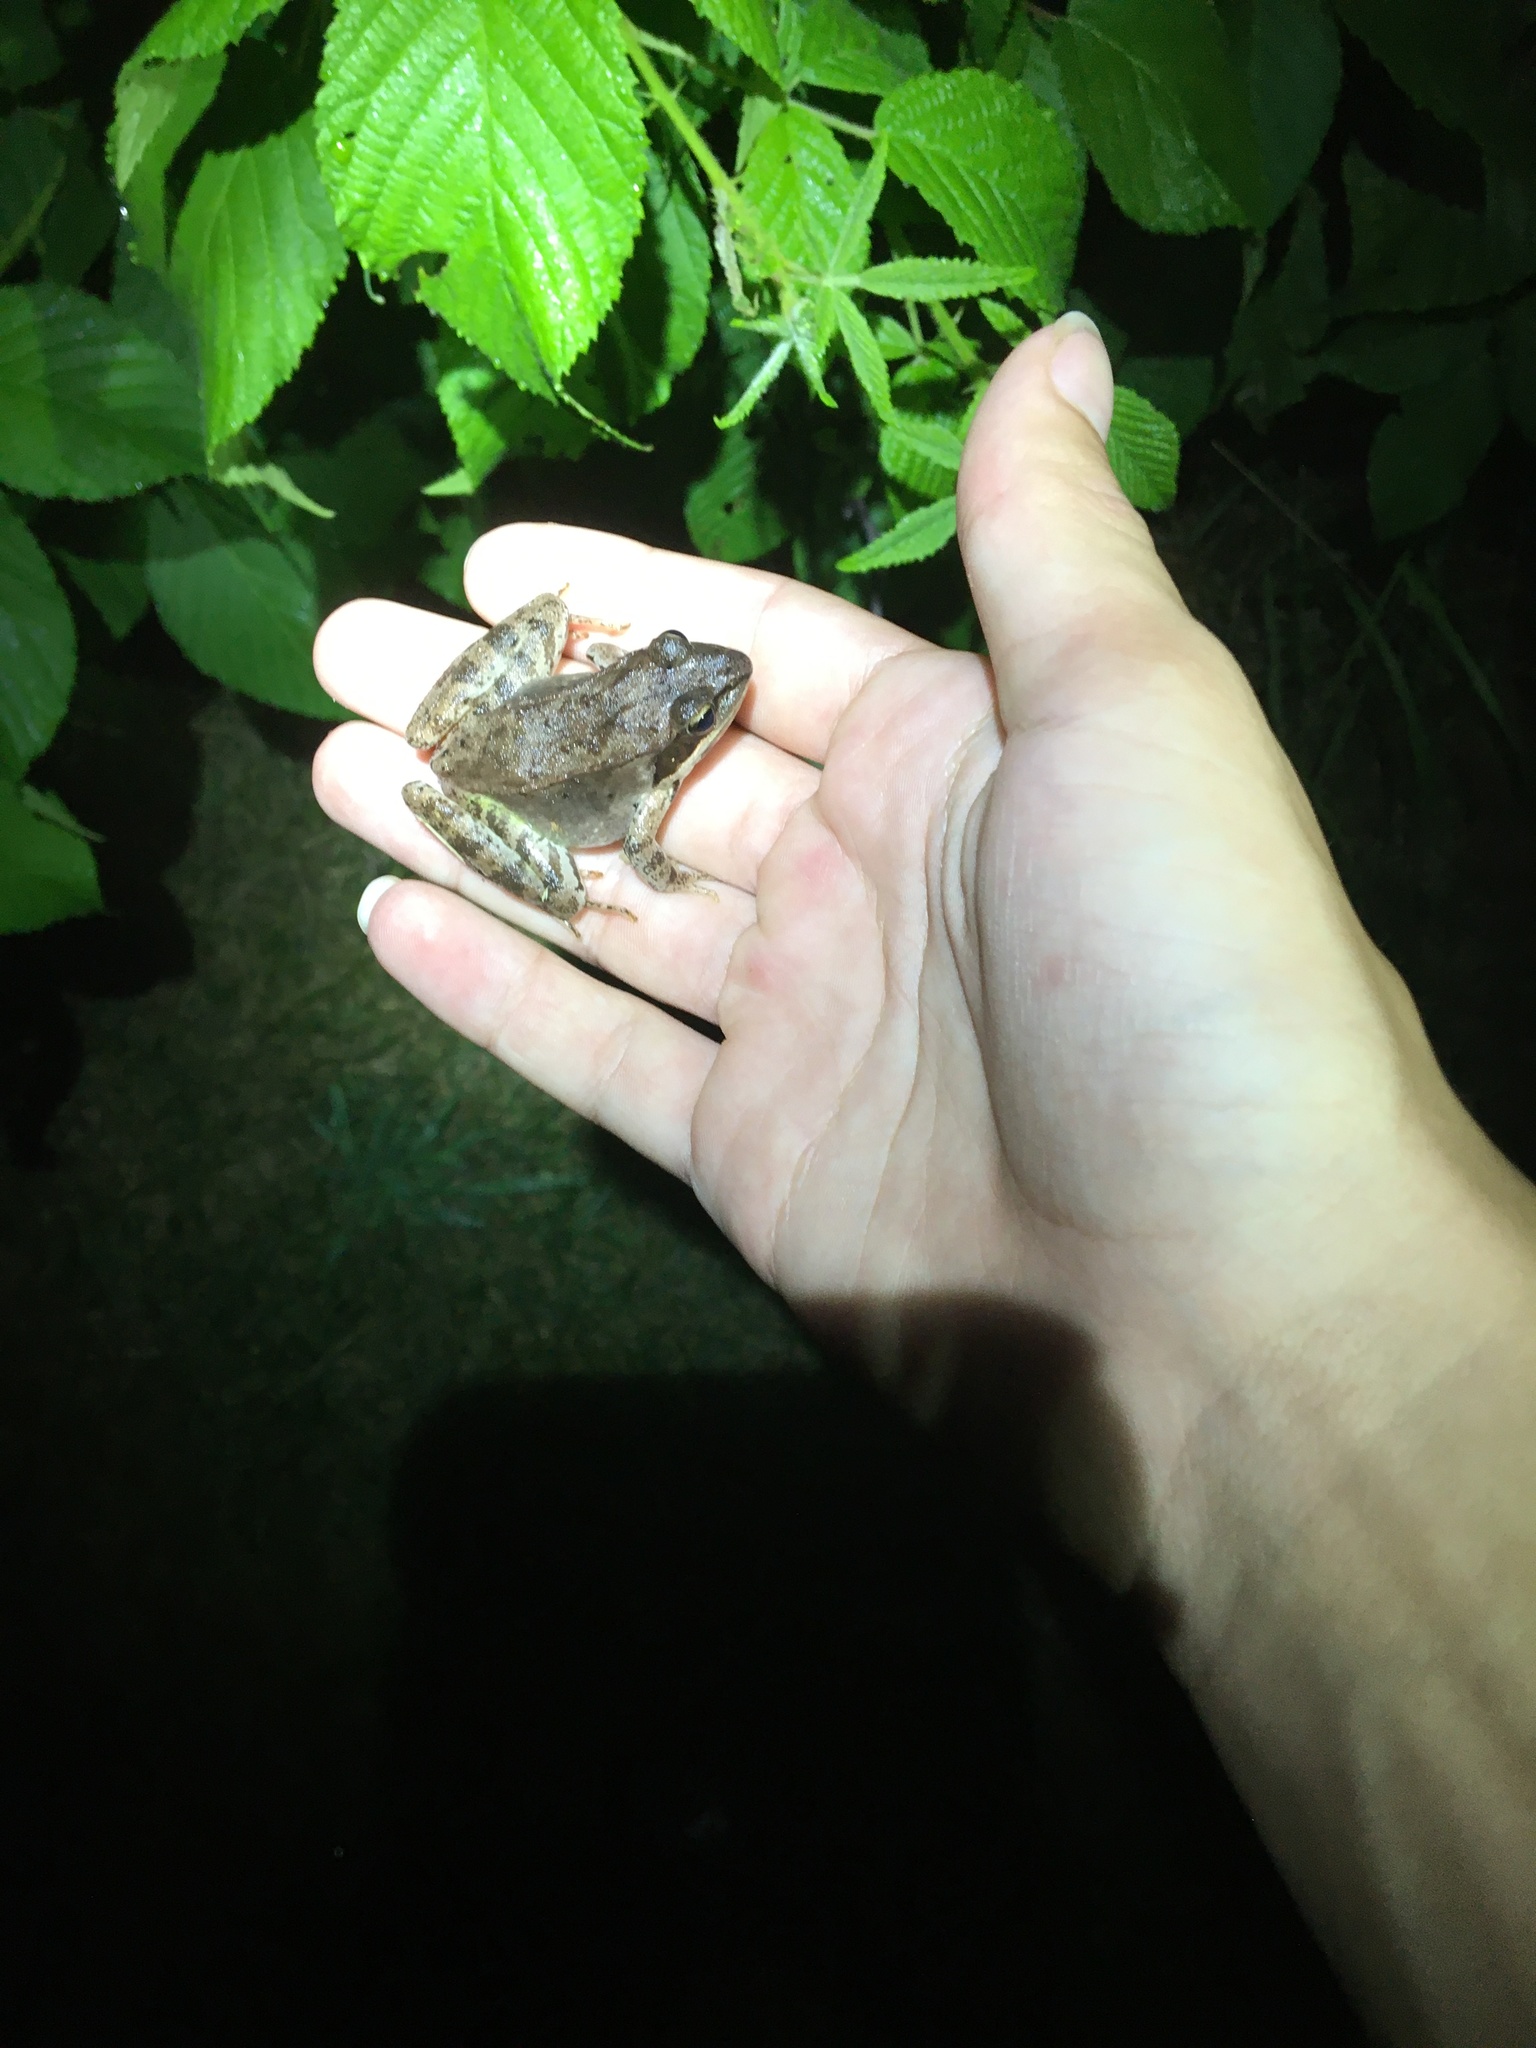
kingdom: Animalia
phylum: Chordata
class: Amphibia
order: Anura
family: Ranidae
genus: Lithobates
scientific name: Lithobates sylvaticus
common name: Wood frog
